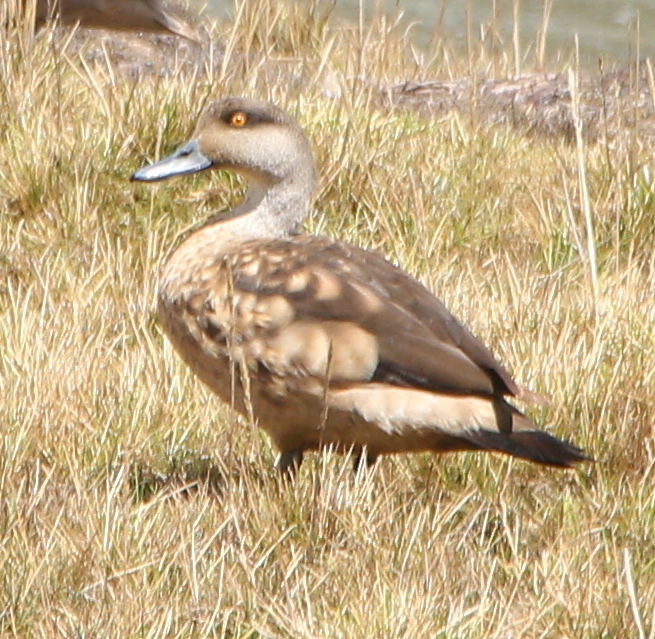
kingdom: Animalia
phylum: Chordata
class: Aves
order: Anseriformes
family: Anatidae
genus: Lophonetta
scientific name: Lophonetta specularioides
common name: Crested duck
